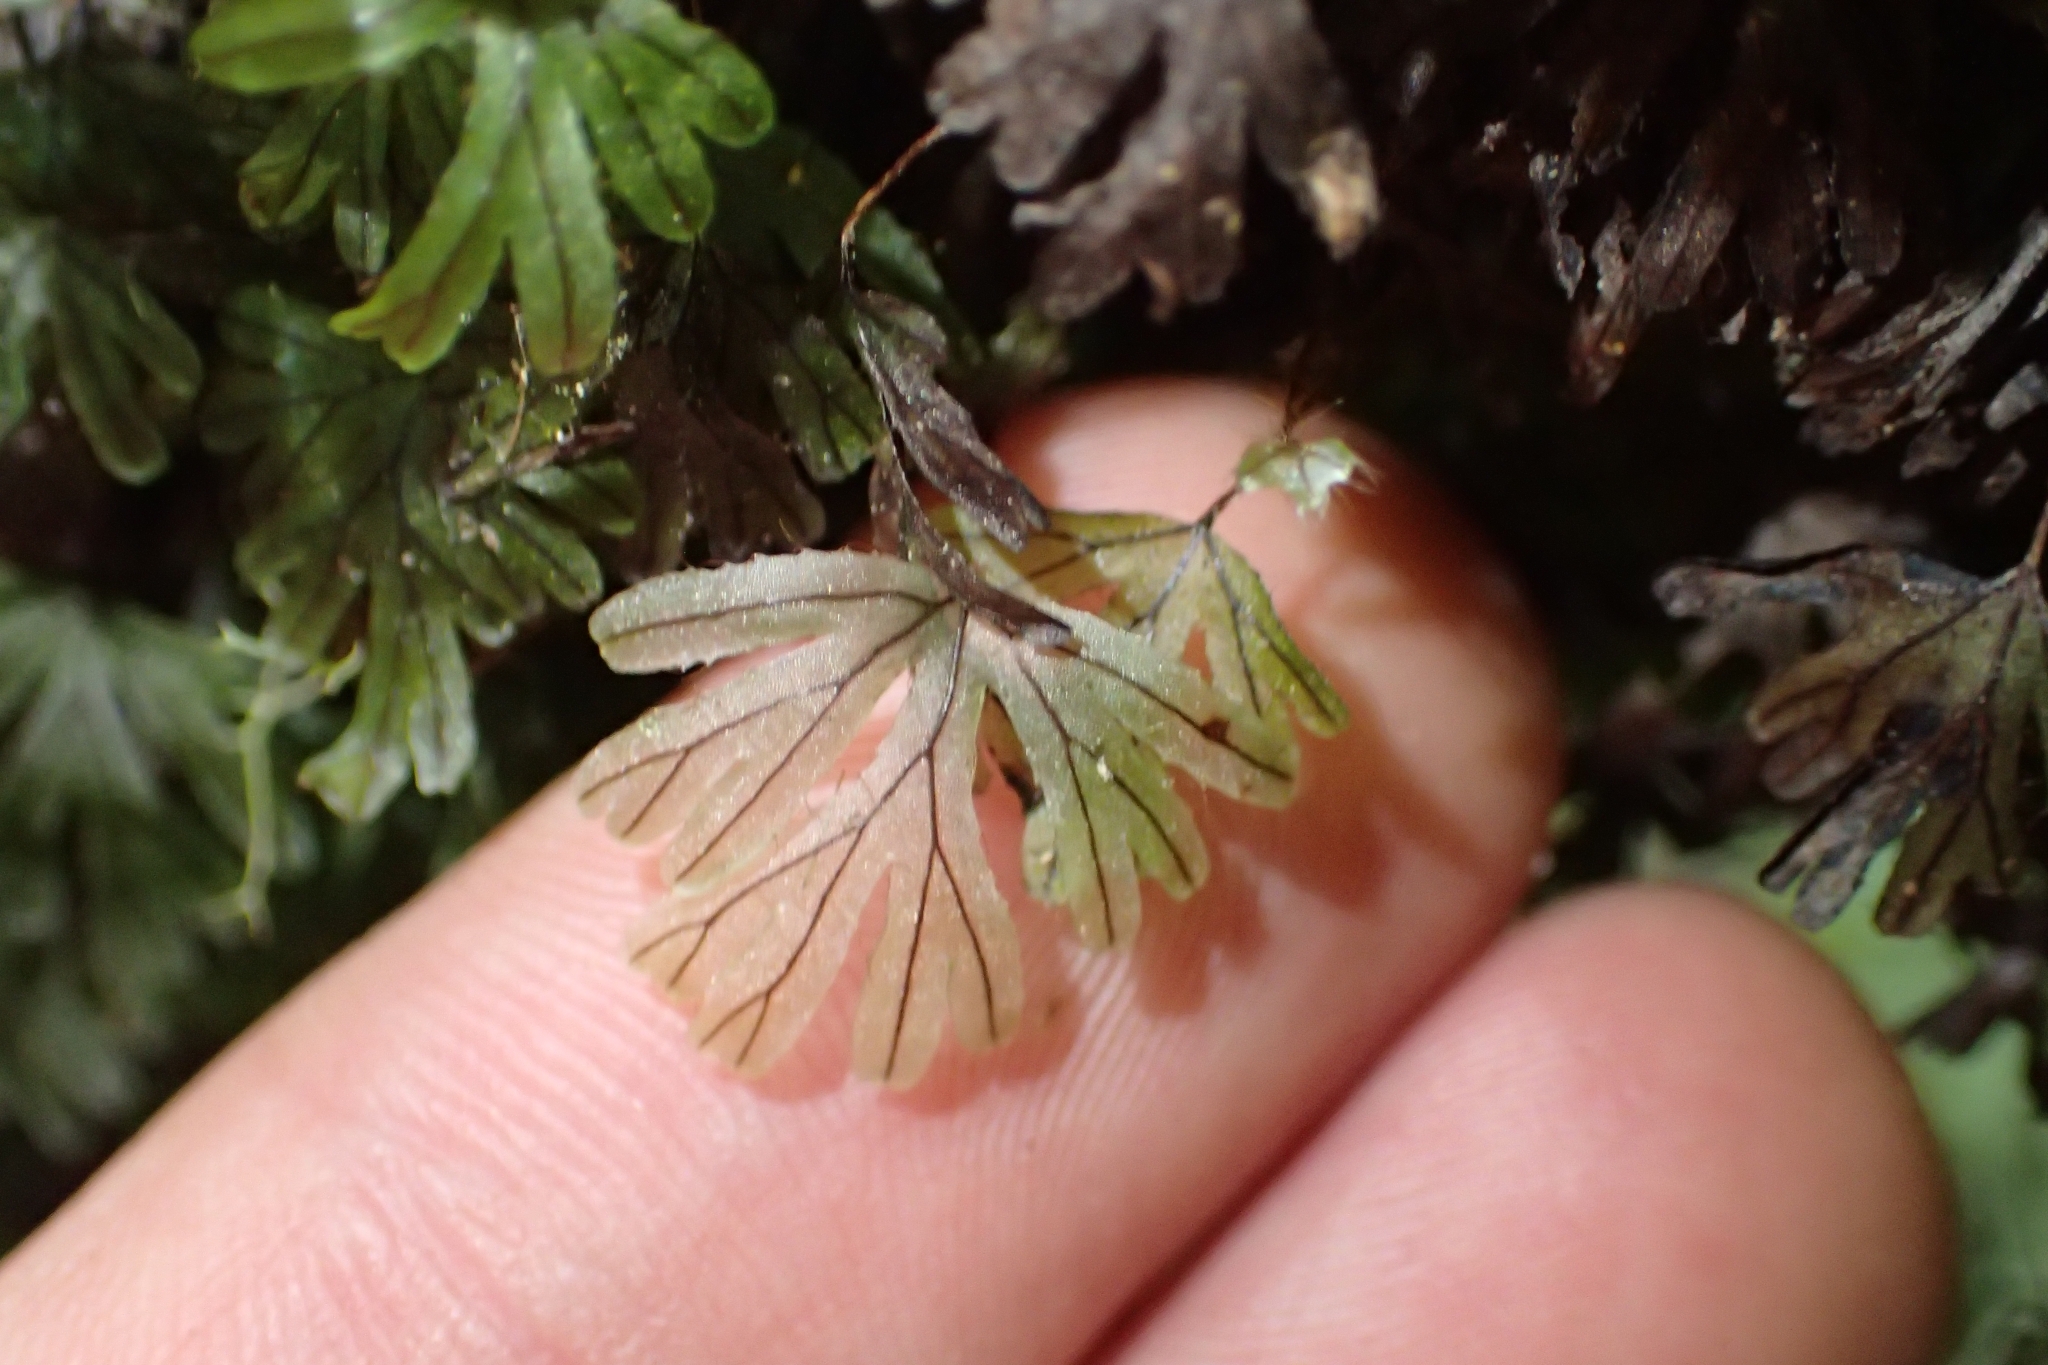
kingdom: Plantae
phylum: Tracheophyta
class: Polypodiopsida
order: Hymenophyllales
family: Hymenophyllaceae
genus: Hymenophyllum
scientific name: Hymenophyllum lyallii
